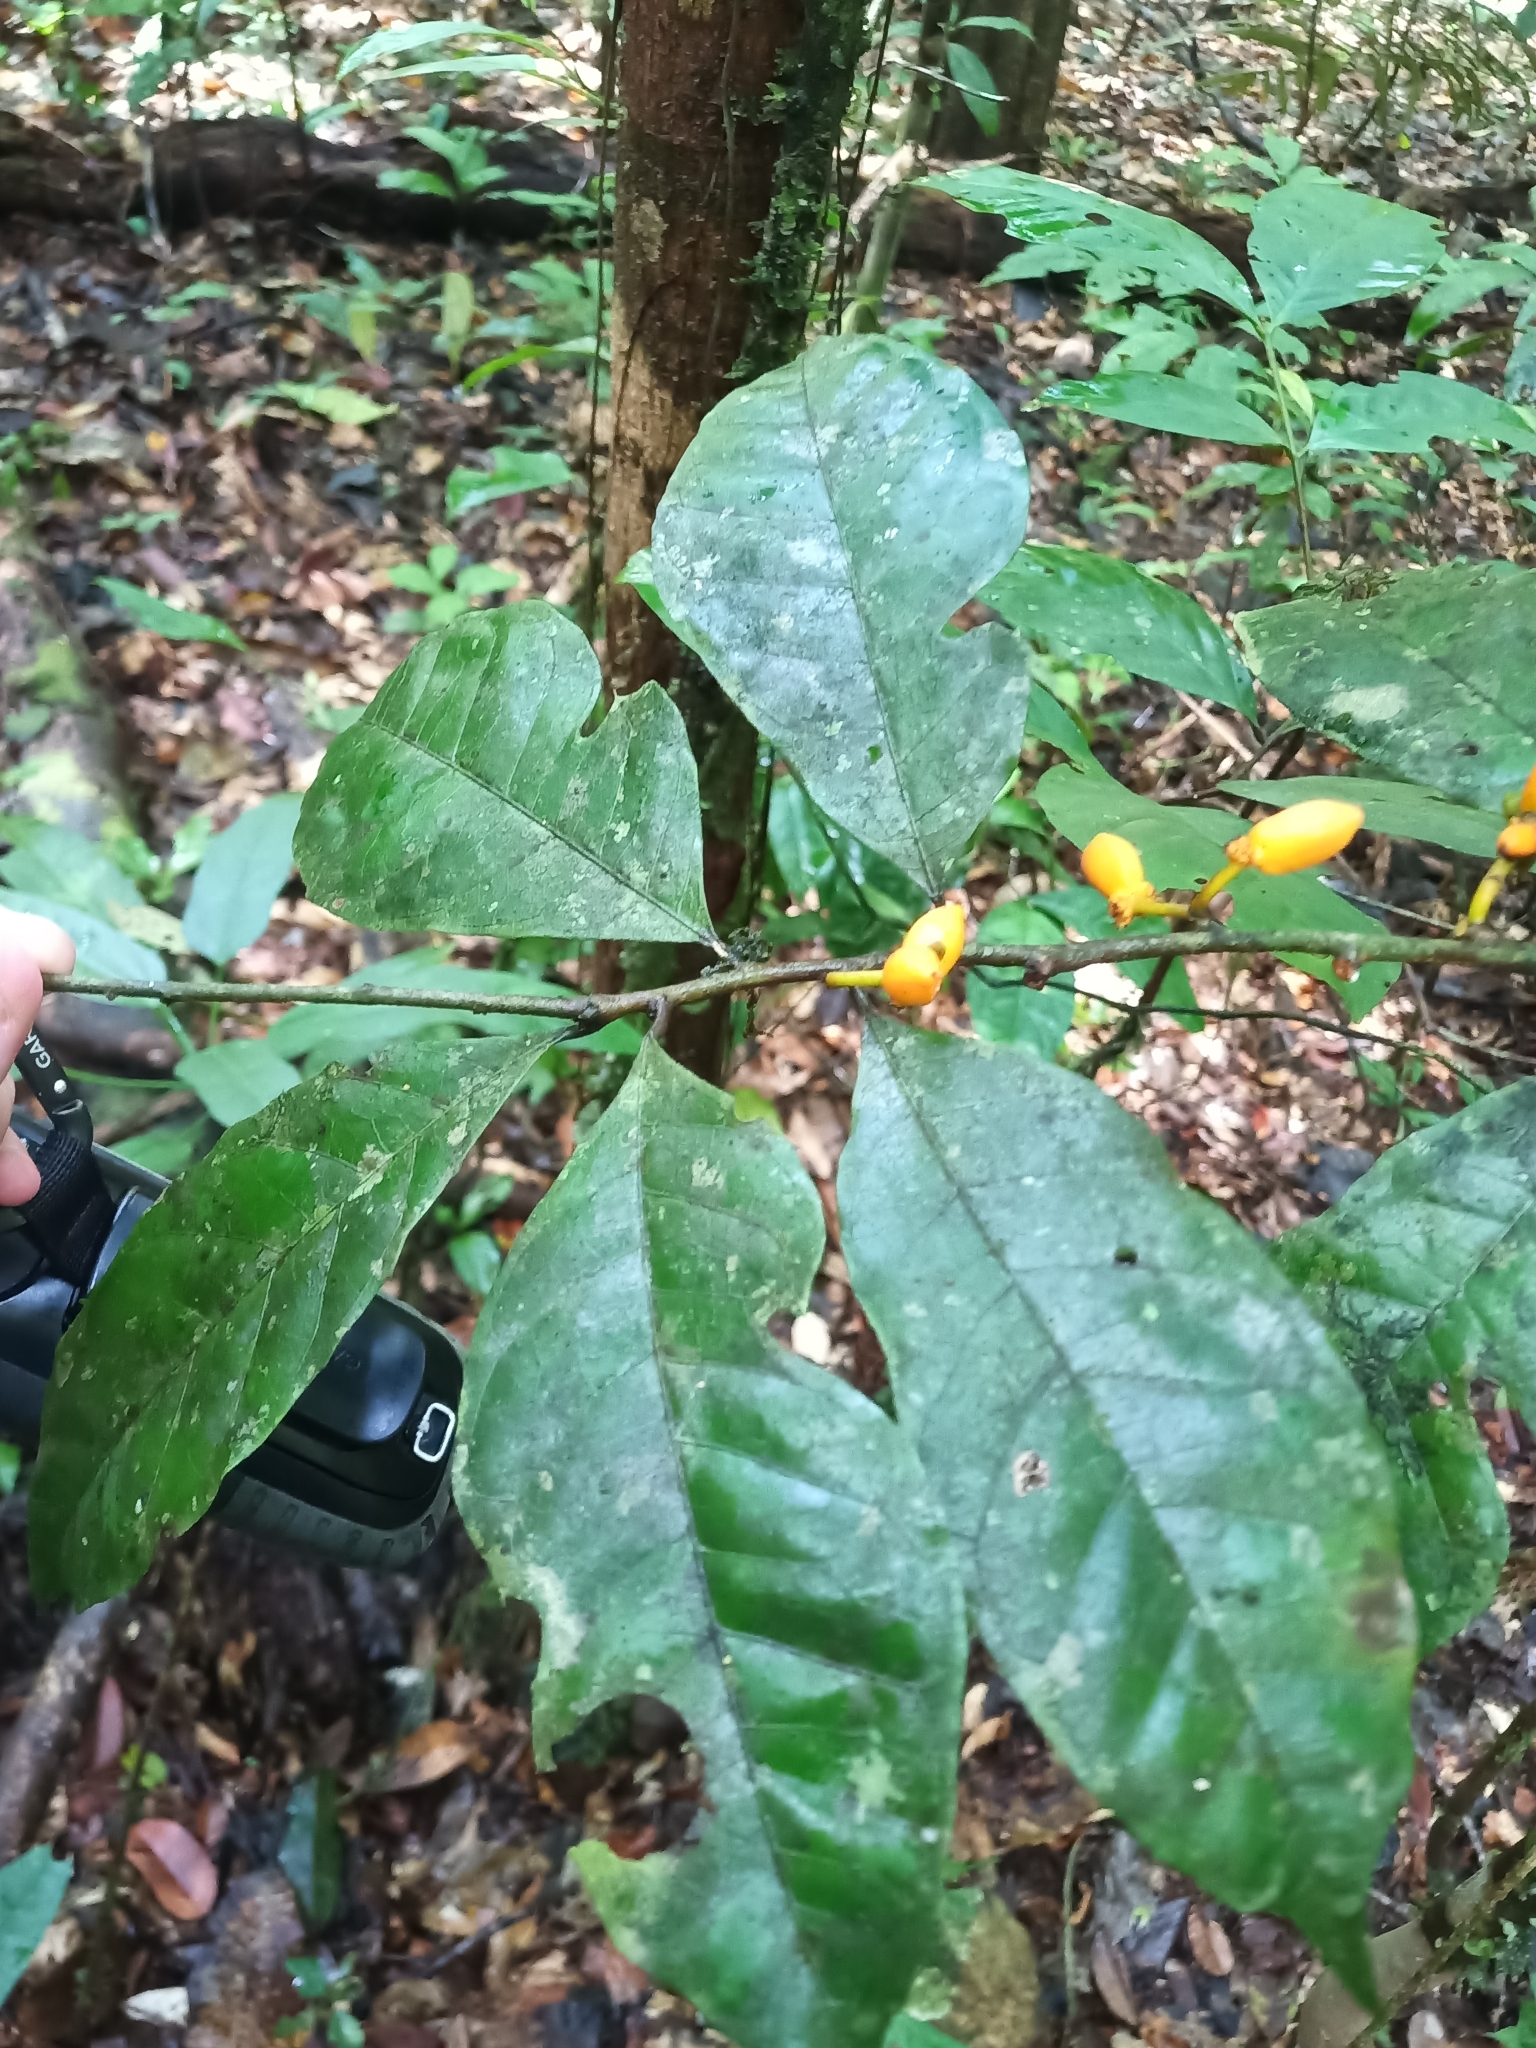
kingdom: Plantae
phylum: Tracheophyta
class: Magnoliopsida
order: Rosales
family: Moraceae
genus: Clarisia
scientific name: Clarisia ilicifolia
